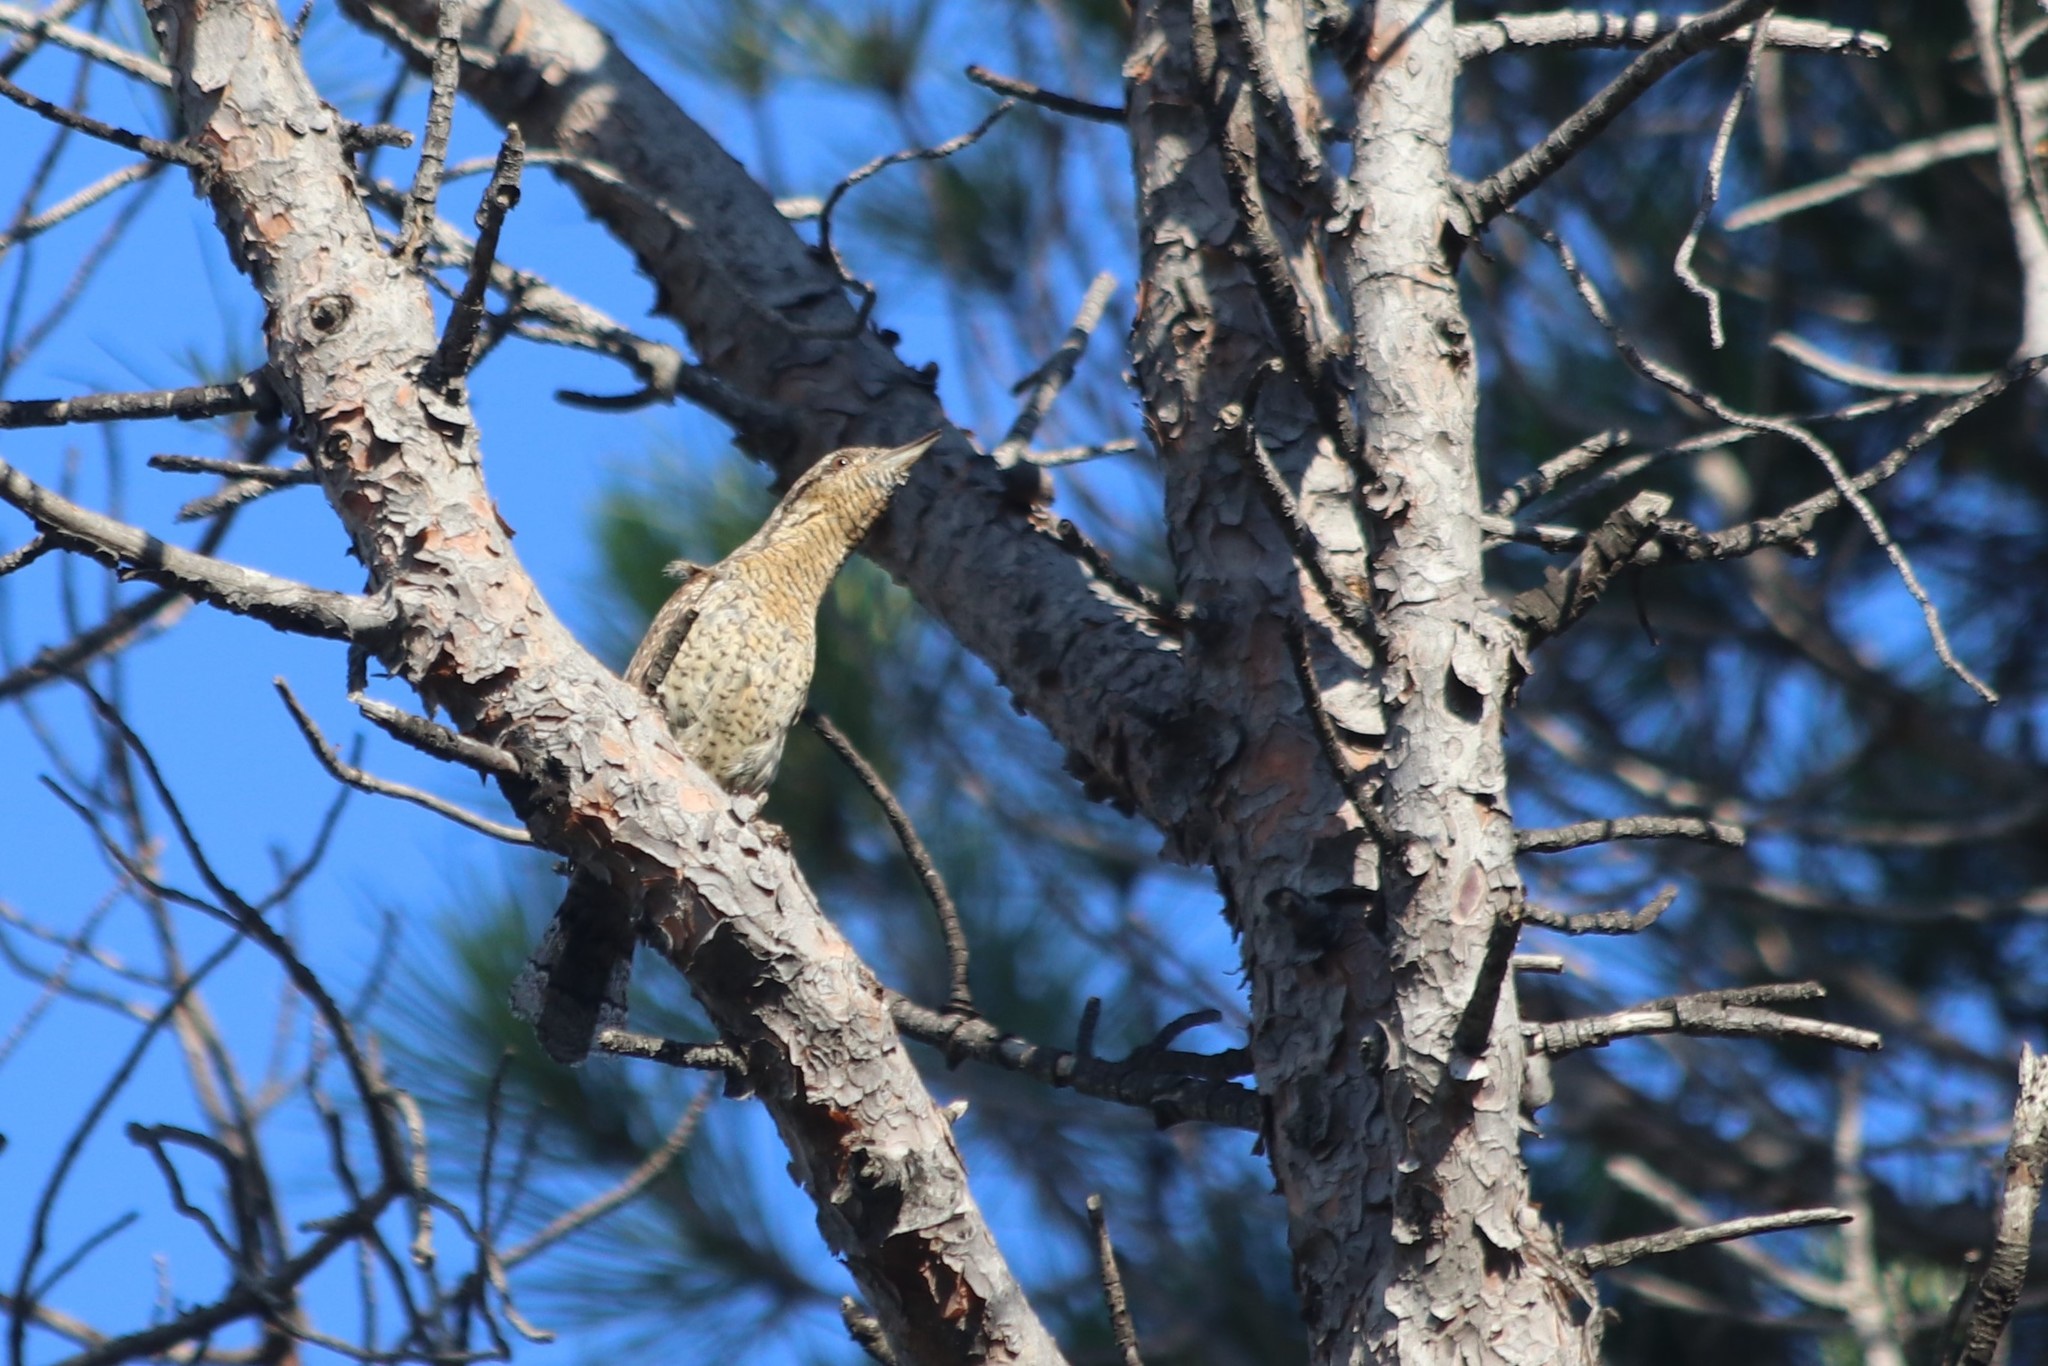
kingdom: Animalia
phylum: Chordata
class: Aves
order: Piciformes
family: Picidae
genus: Jynx
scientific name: Jynx torquilla
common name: Eurasian wryneck
